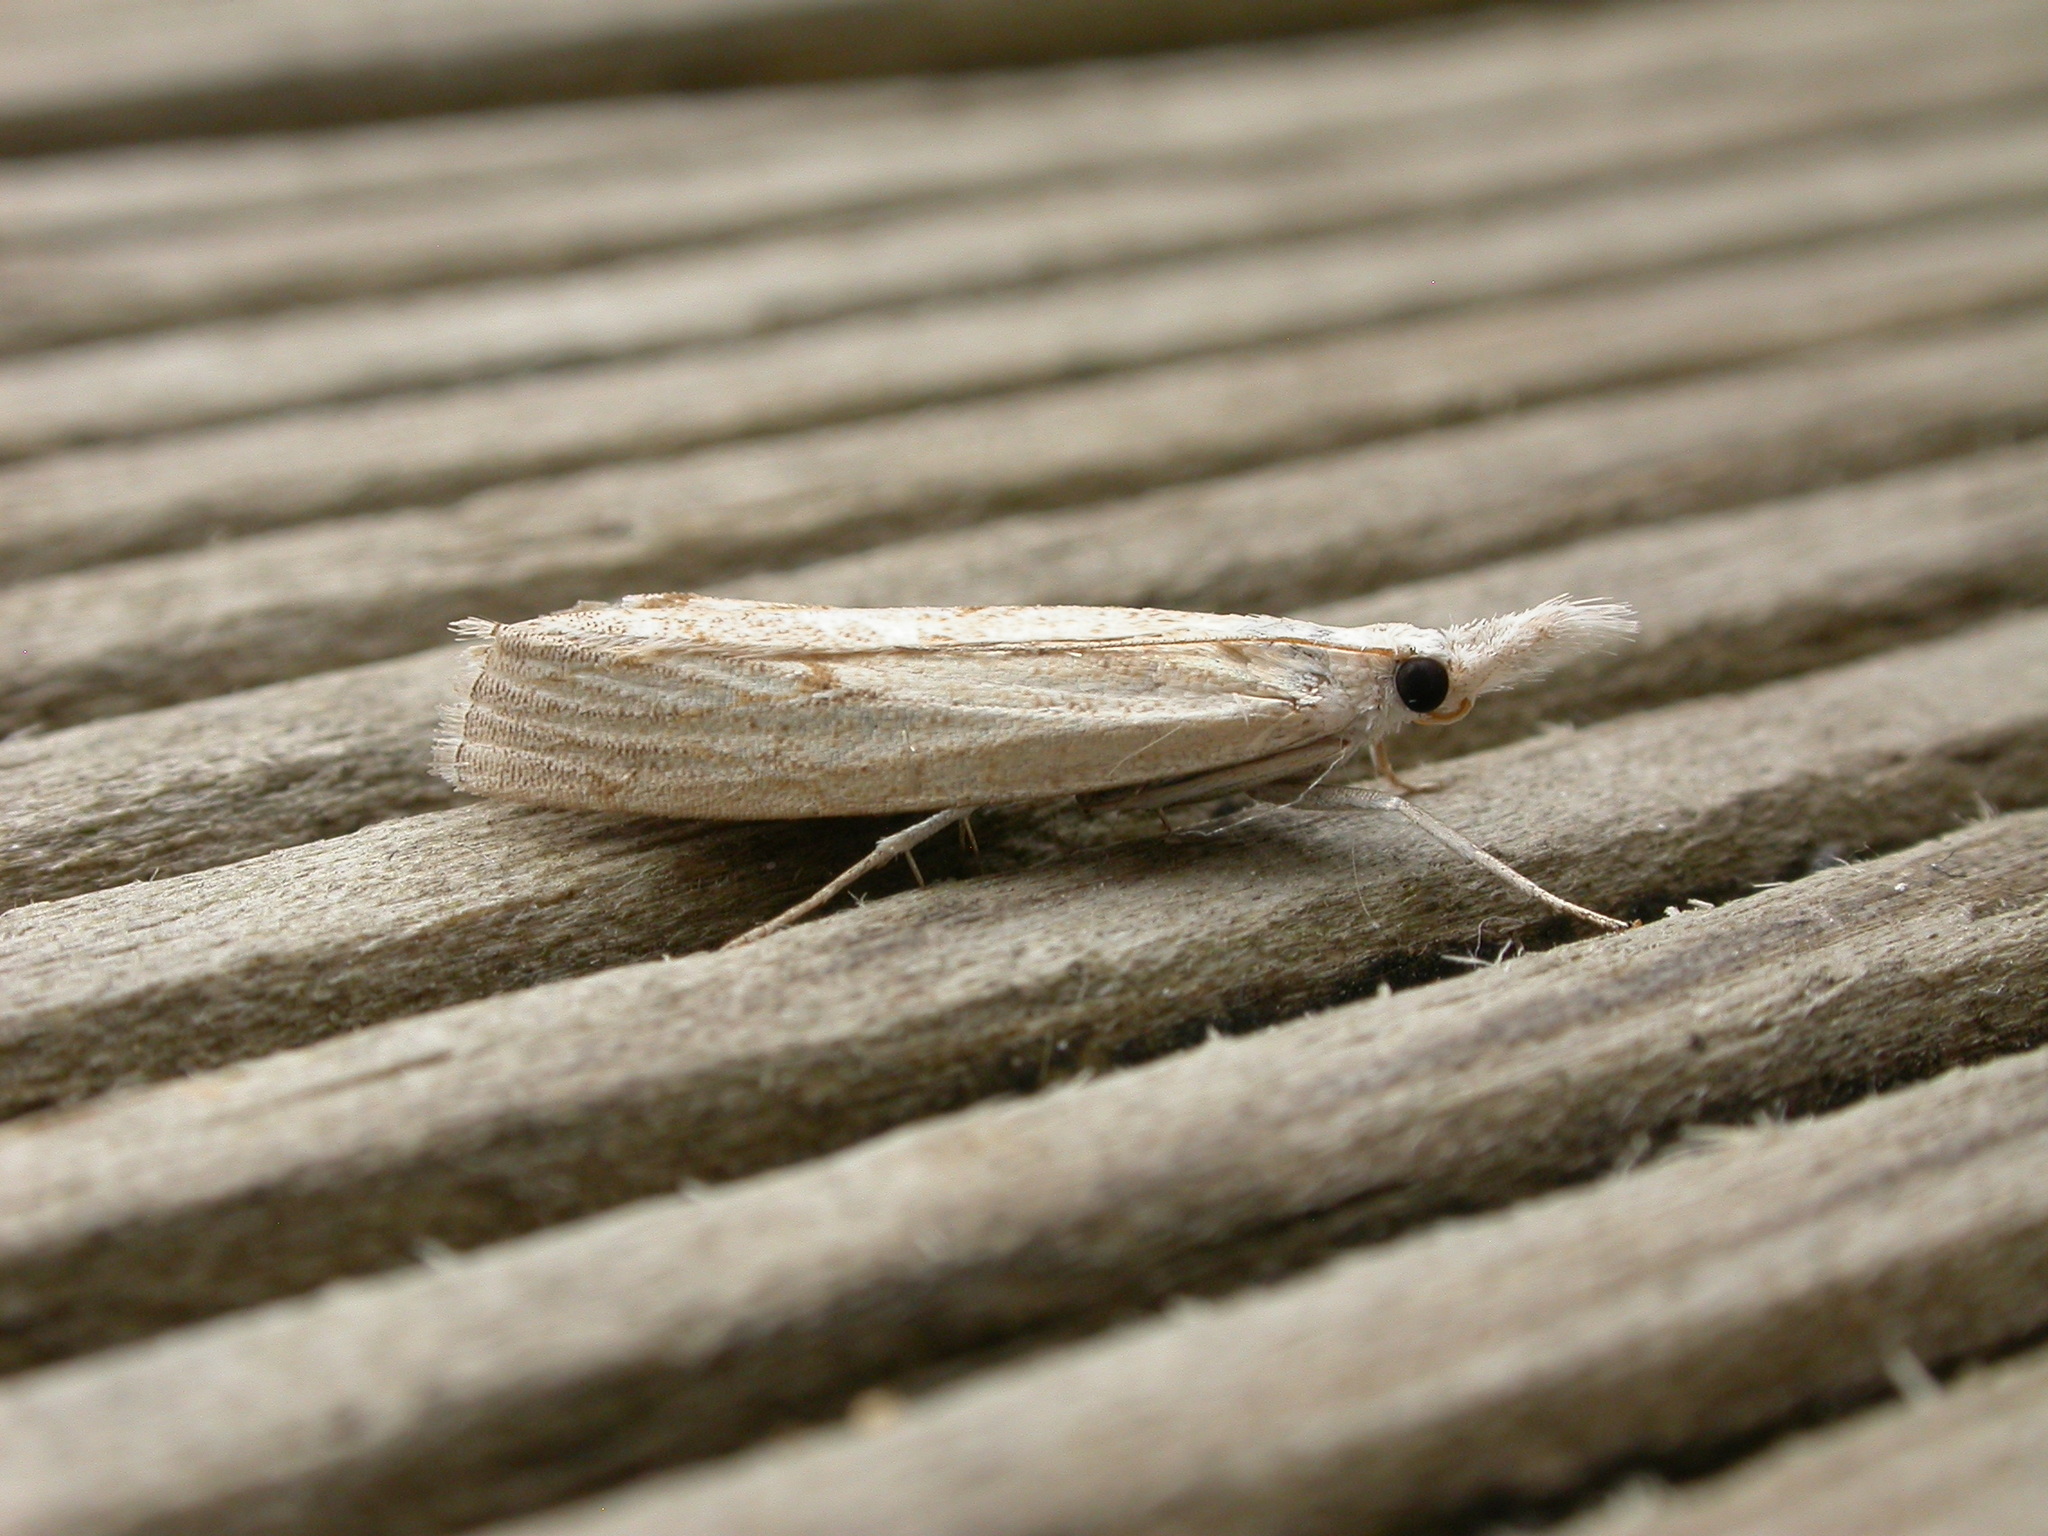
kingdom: Animalia
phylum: Arthropoda
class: Insecta
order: Lepidoptera
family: Crambidae
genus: Culladia
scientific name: Culladia cuneiferellus
